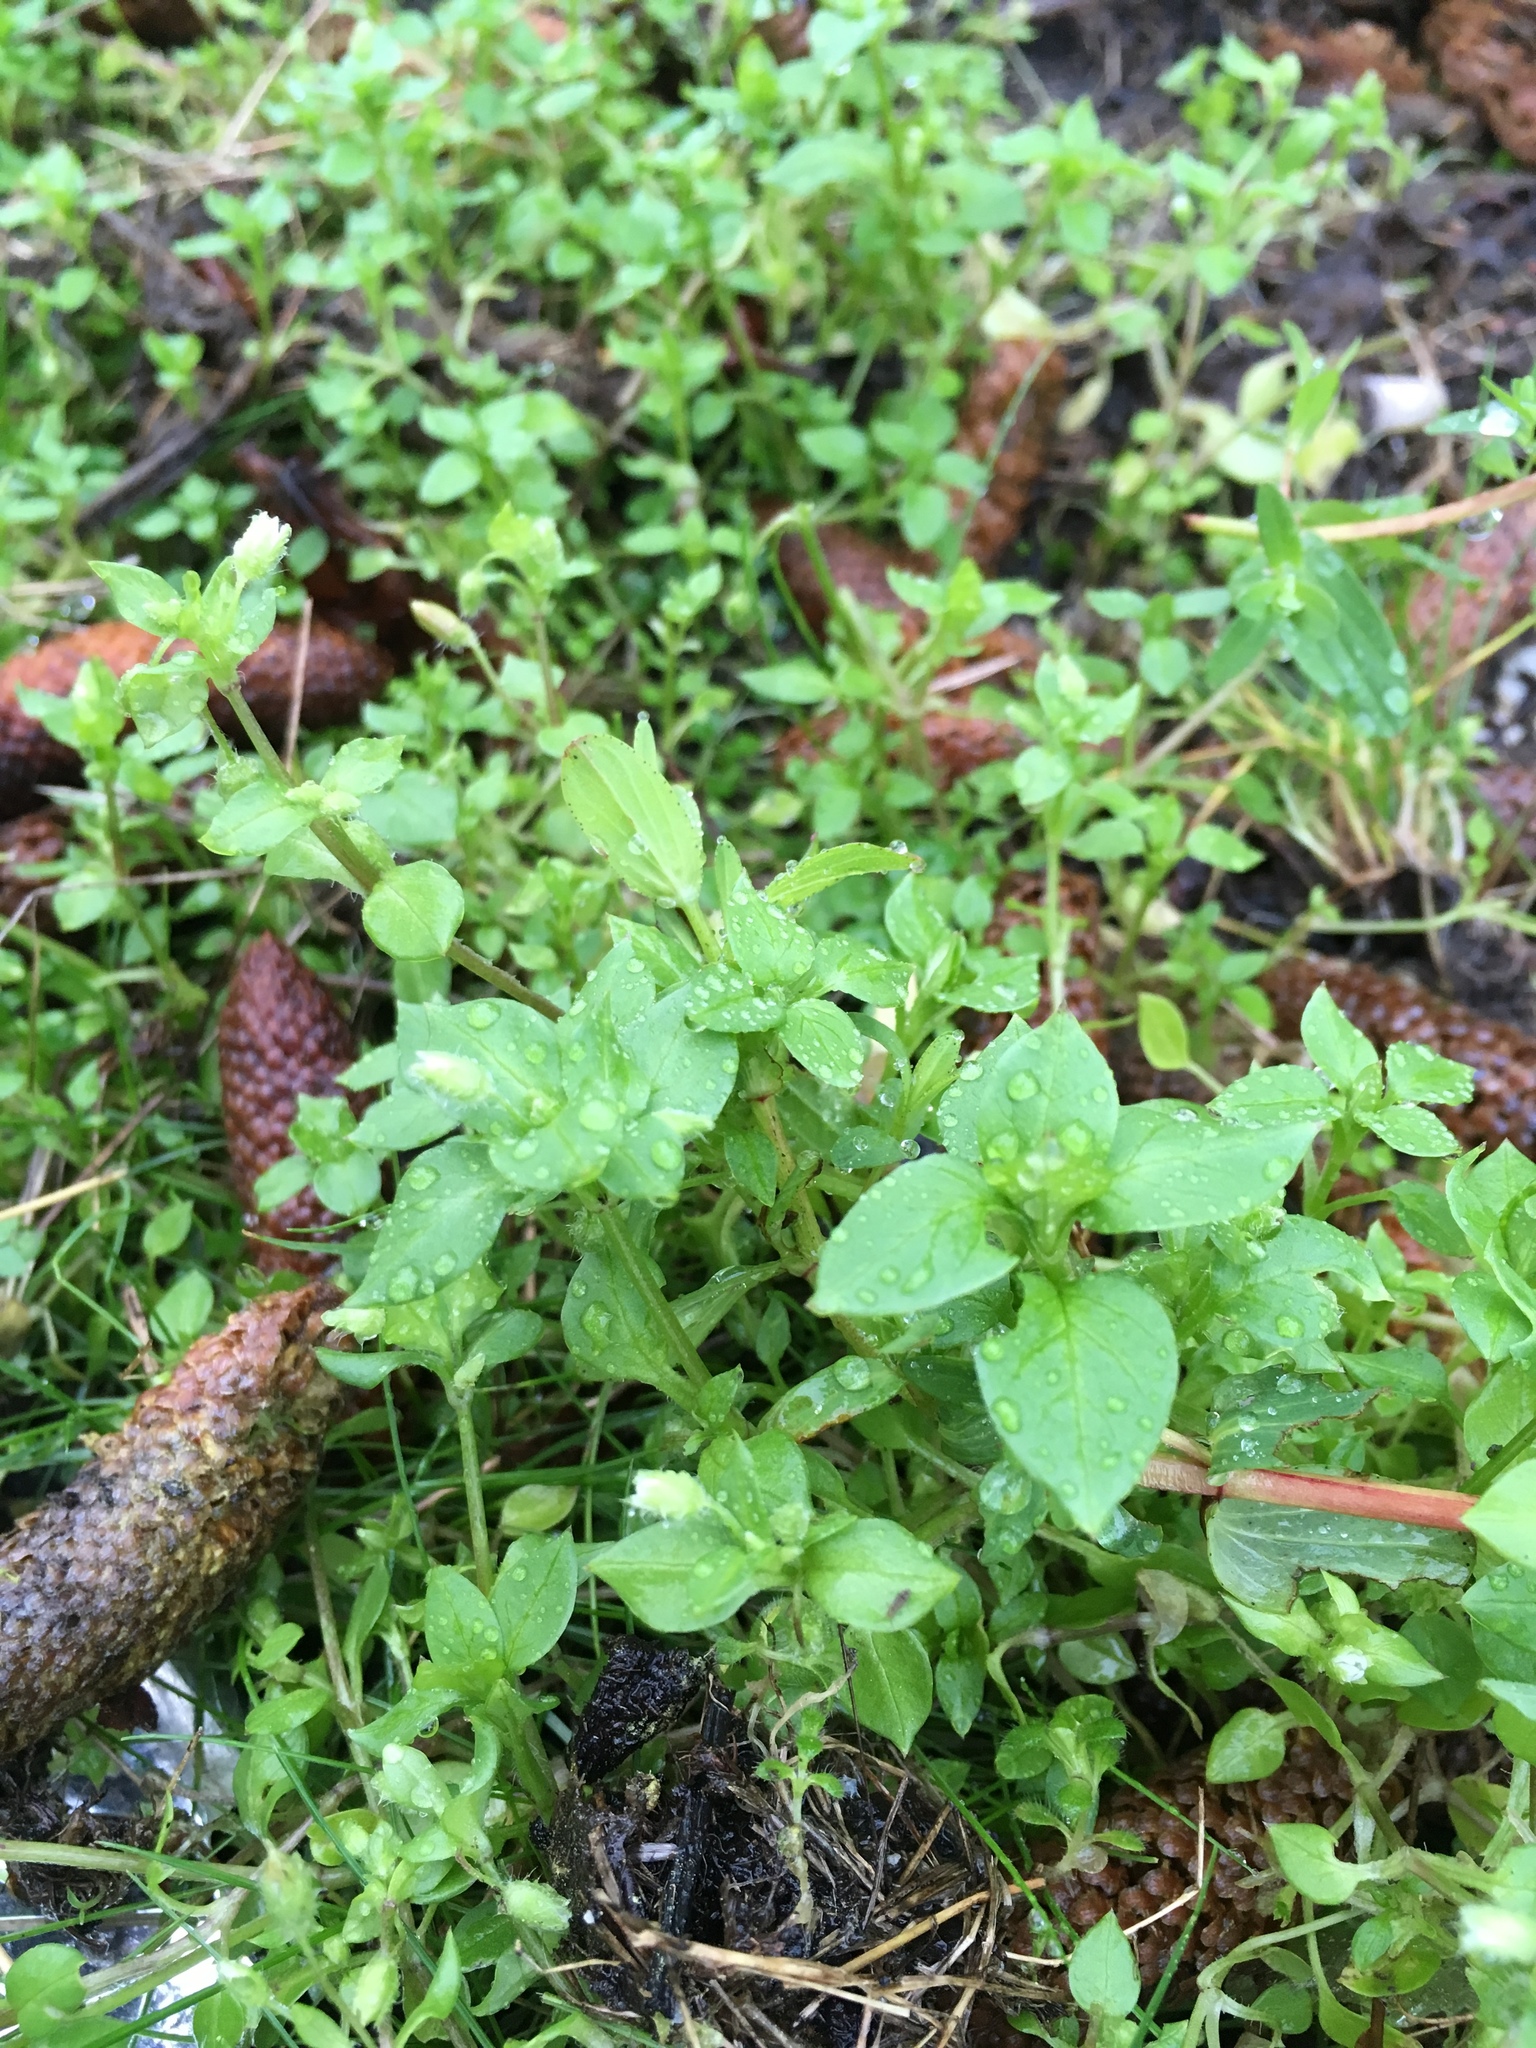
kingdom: Plantae
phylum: Tracheophyta
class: Magnoliopsida
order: Caryophyllales
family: Caryophyllaceae
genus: Stellaria
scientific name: Stellaria media
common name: Common chickweed
